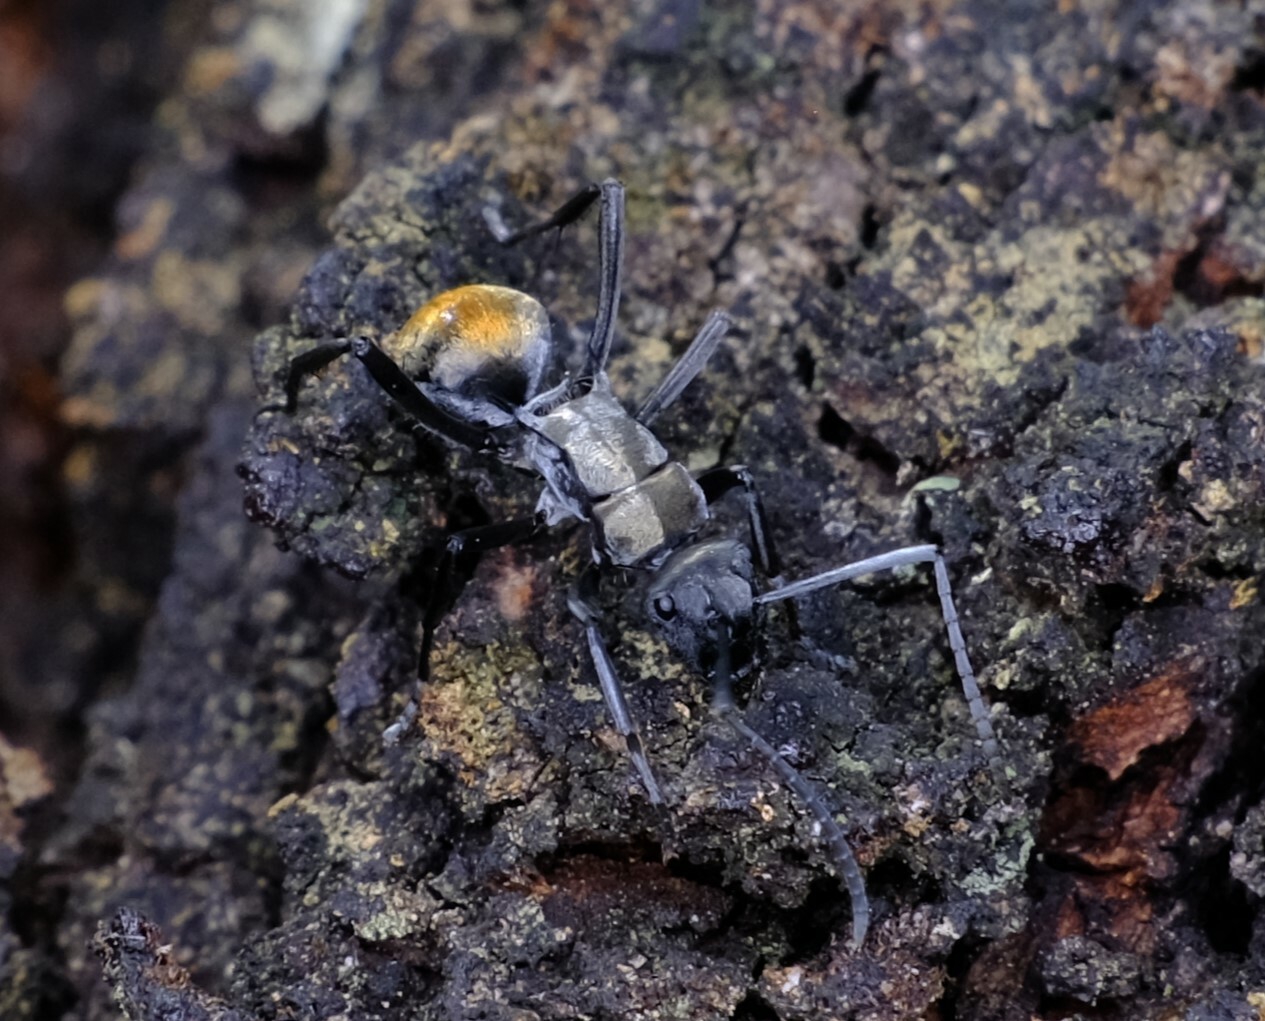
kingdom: Animalia
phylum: Arthropoda
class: Insecta
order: Hymenoptera
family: Formicidae
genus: Polyrhachis
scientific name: Polyrhachis ammon
